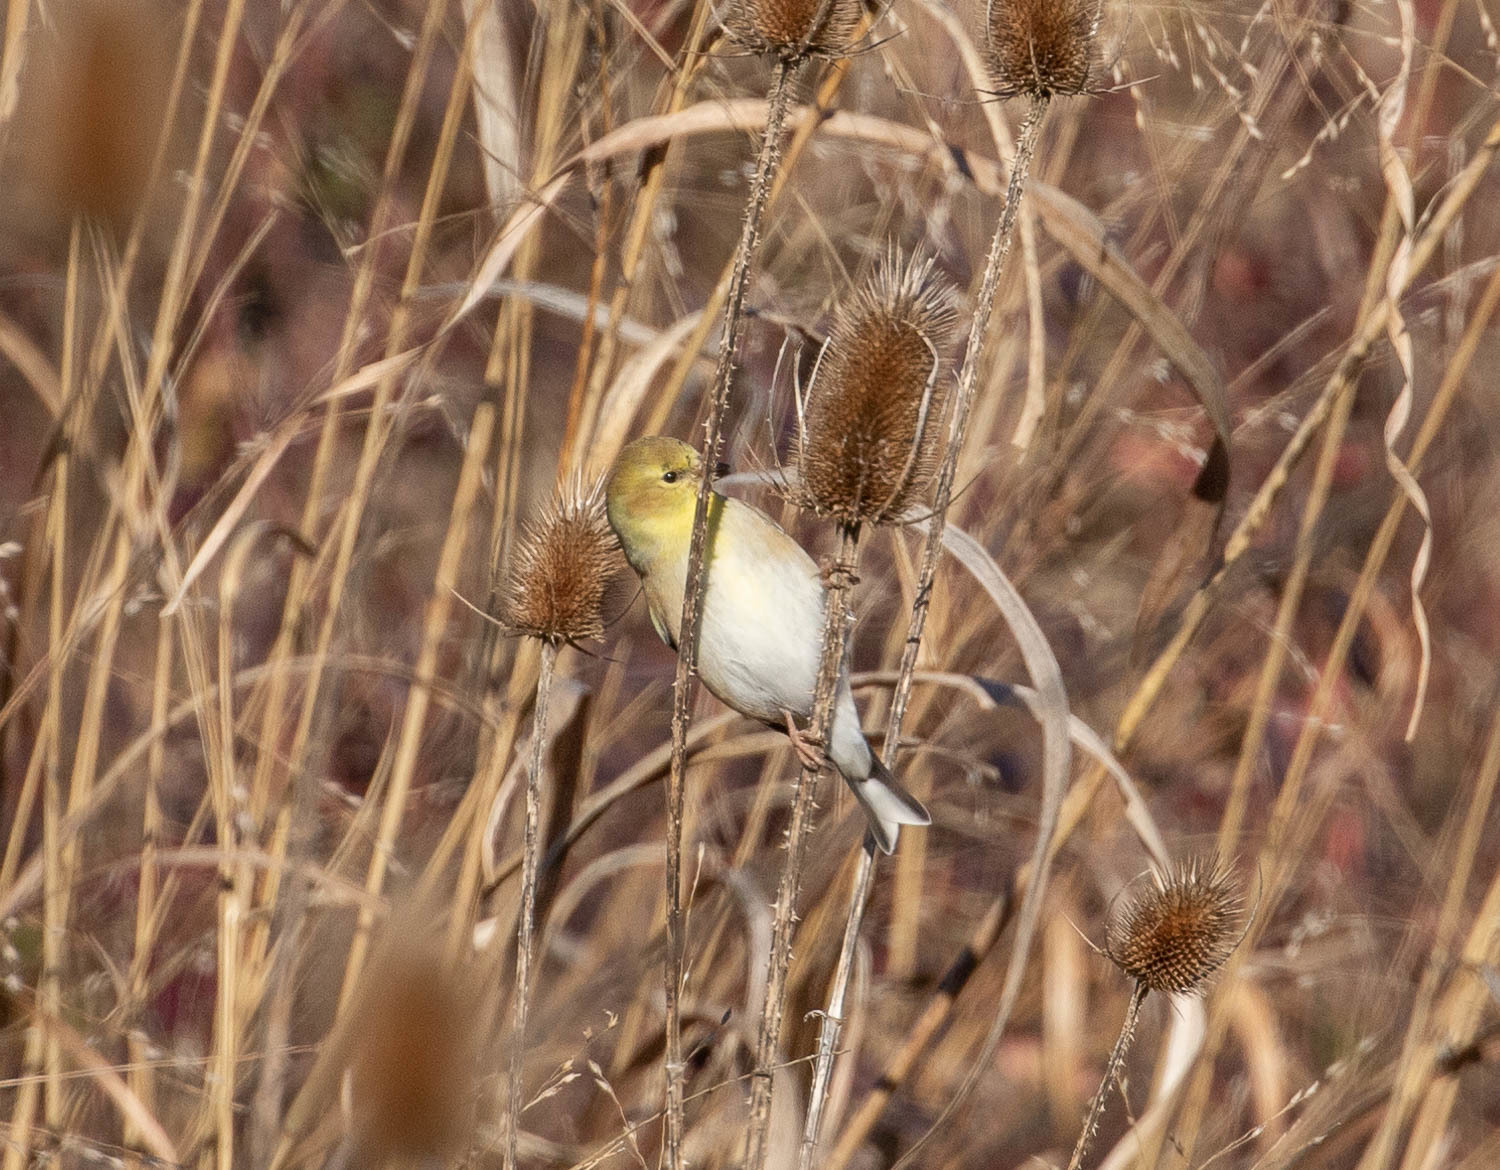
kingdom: Animalia
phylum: Chordata
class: Aves
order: Passeriformes
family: Fringillidae
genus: Spinus
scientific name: Spinus tristis
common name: American goldfinch
